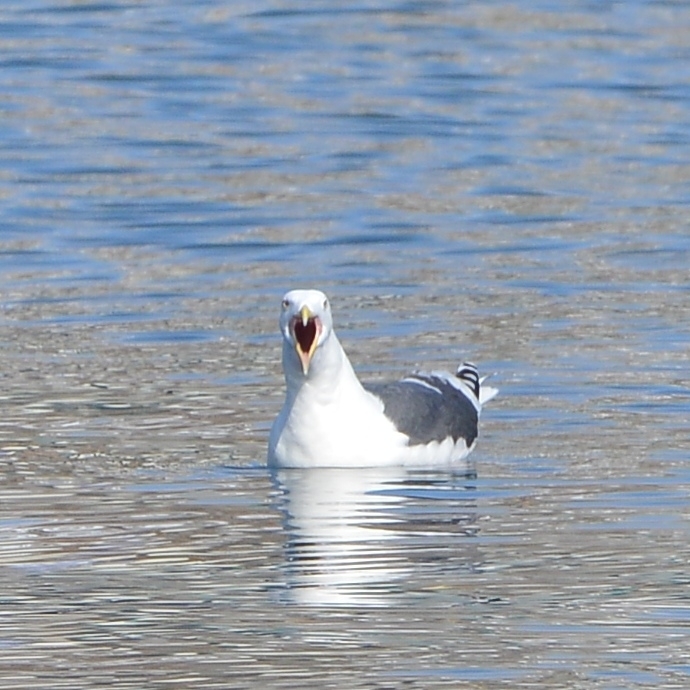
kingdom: Animalia
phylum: Chordata
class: Aves
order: Charadriiformes
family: Laridae
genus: Larus
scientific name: Larus schistisagus
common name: Slaty-backed gull
